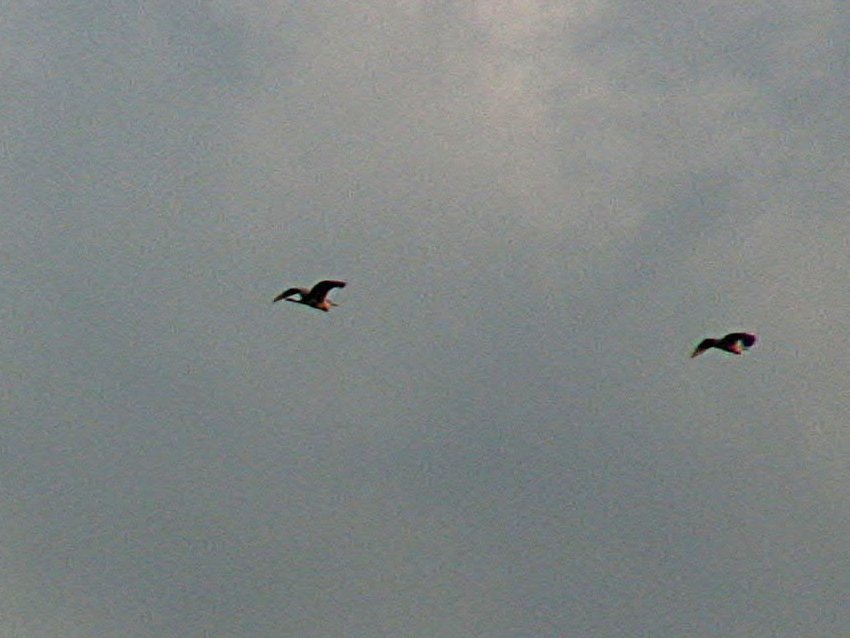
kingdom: Animalia
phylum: Chordata
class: Aves
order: Pelecaniformes
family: Ardeidae
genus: Ardea
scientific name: Ardea cinerea
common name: Grey heron
